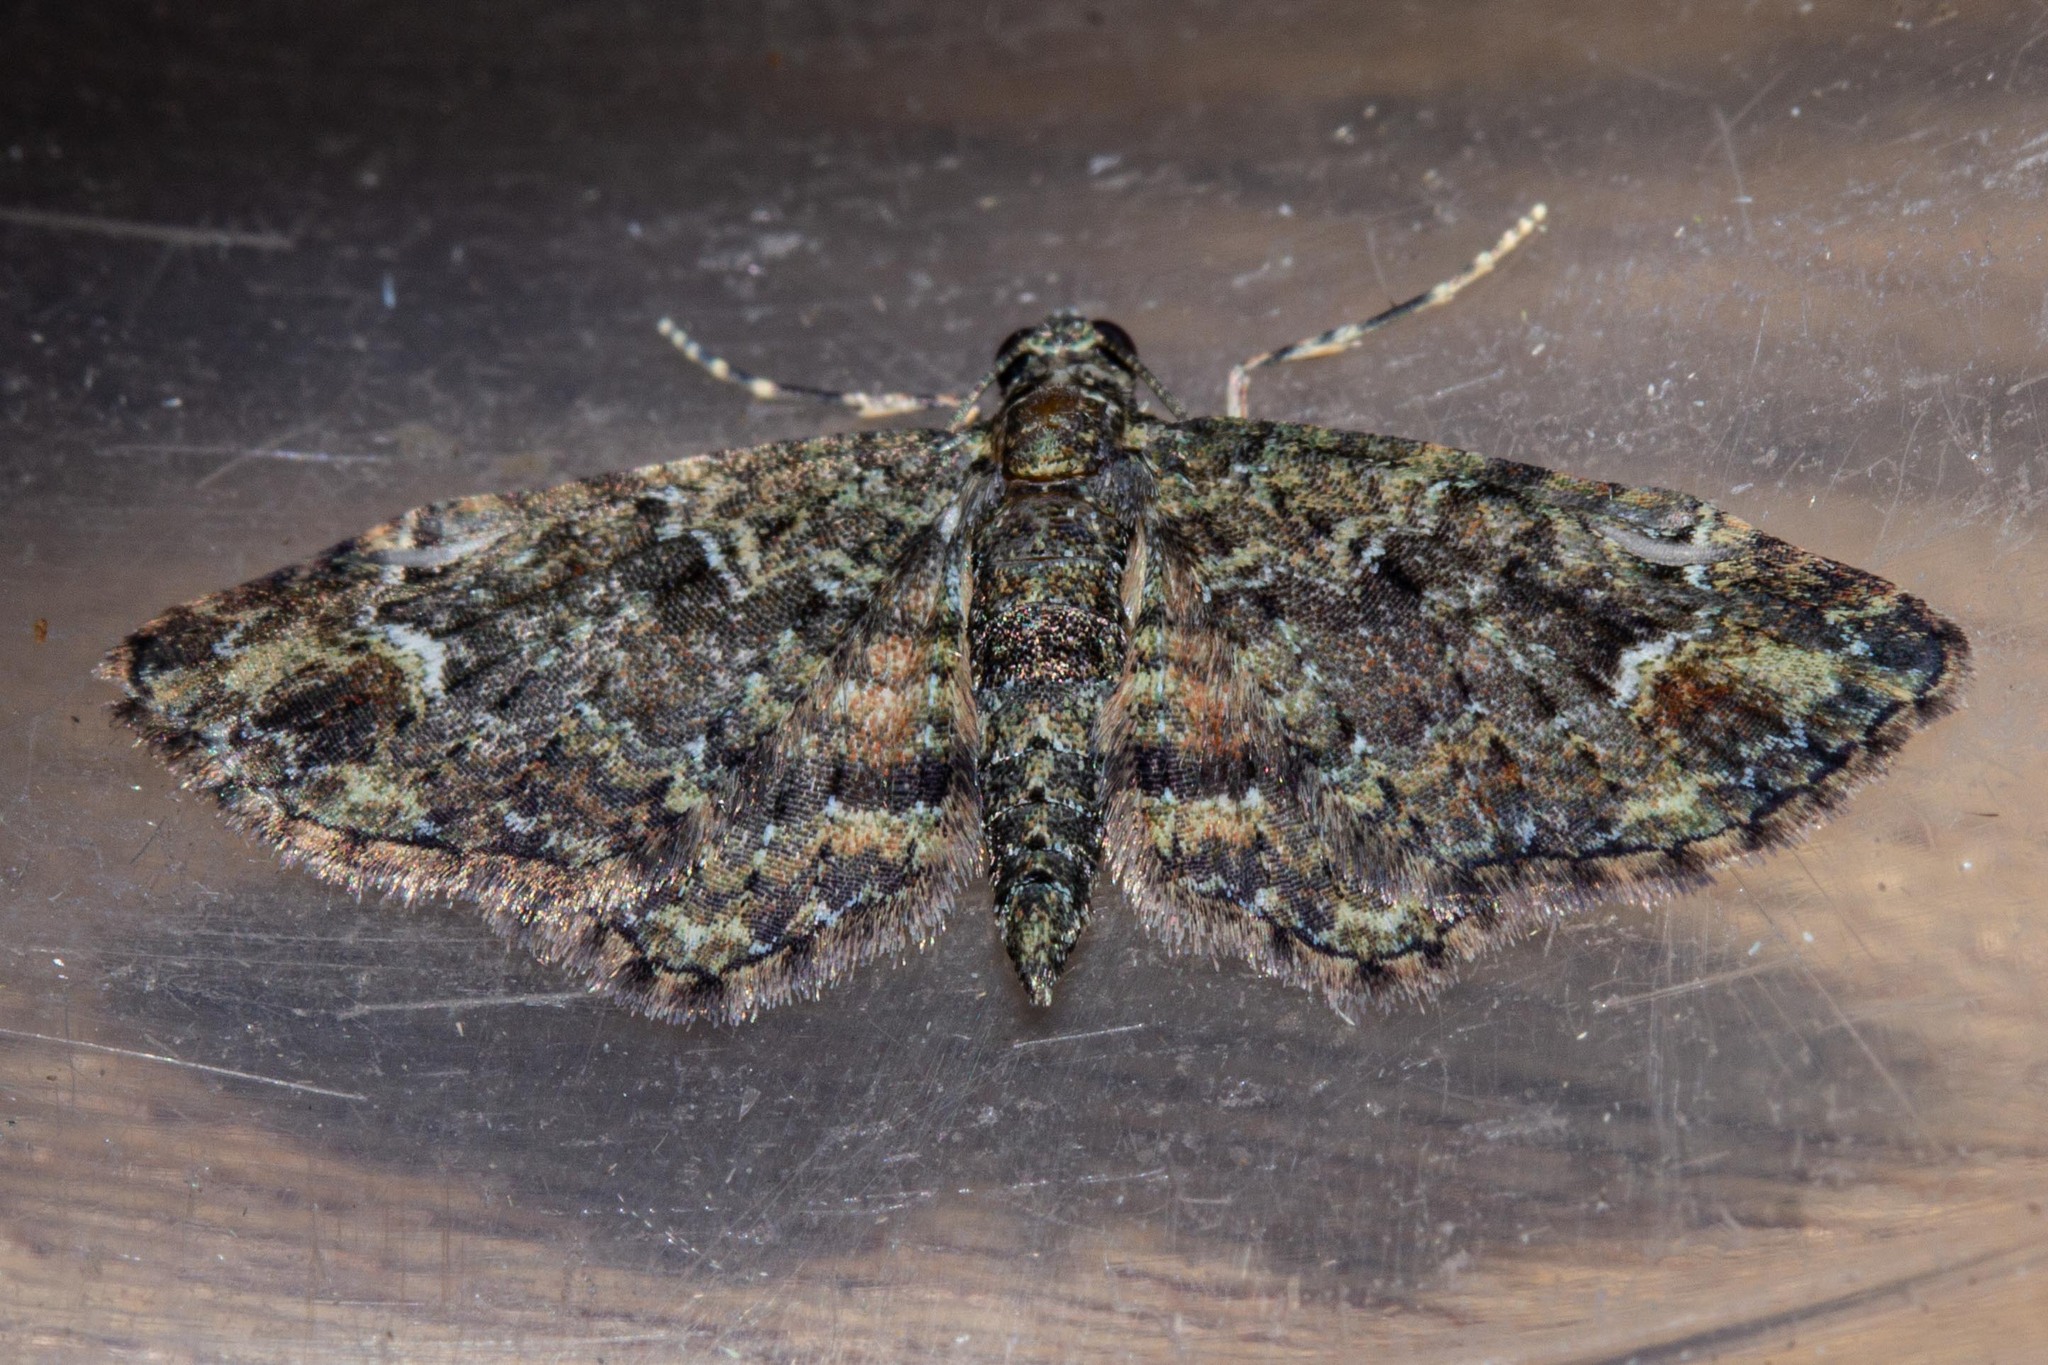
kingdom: Animalia
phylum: Arthropoda
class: Insecta
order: Lepidoptera
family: Geometridae
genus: Pasiphilodes
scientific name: Pasiphilodes testulata
